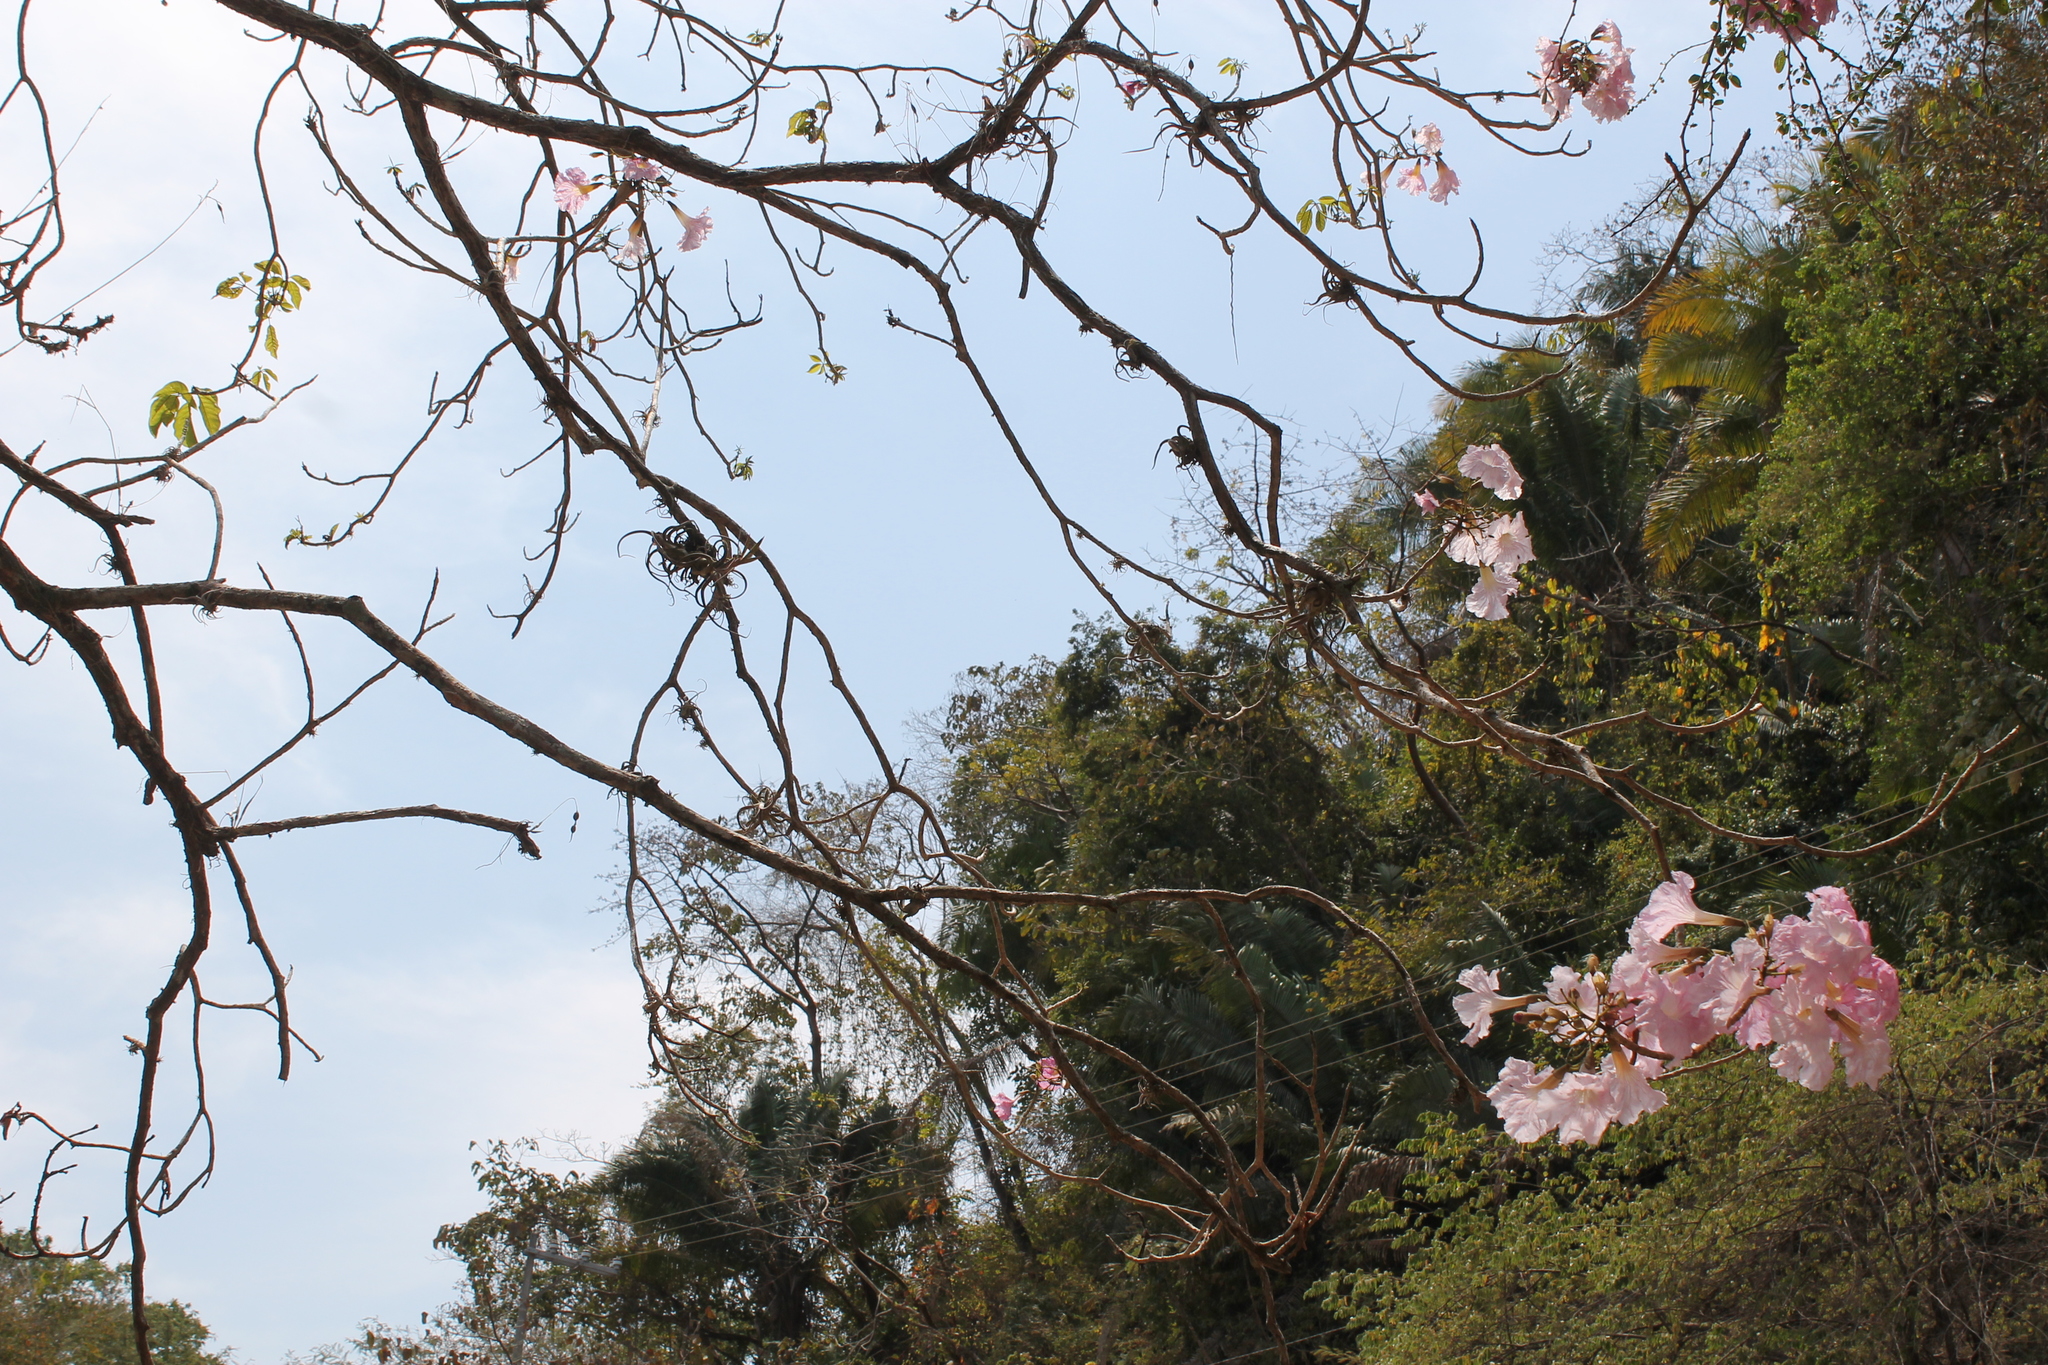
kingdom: Plantae
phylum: Tracheophyta
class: Magnoliopsida
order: Lamiales
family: Bignoniaceae
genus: Tabebuia
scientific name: Tabebuia rosea
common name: Pink poui
